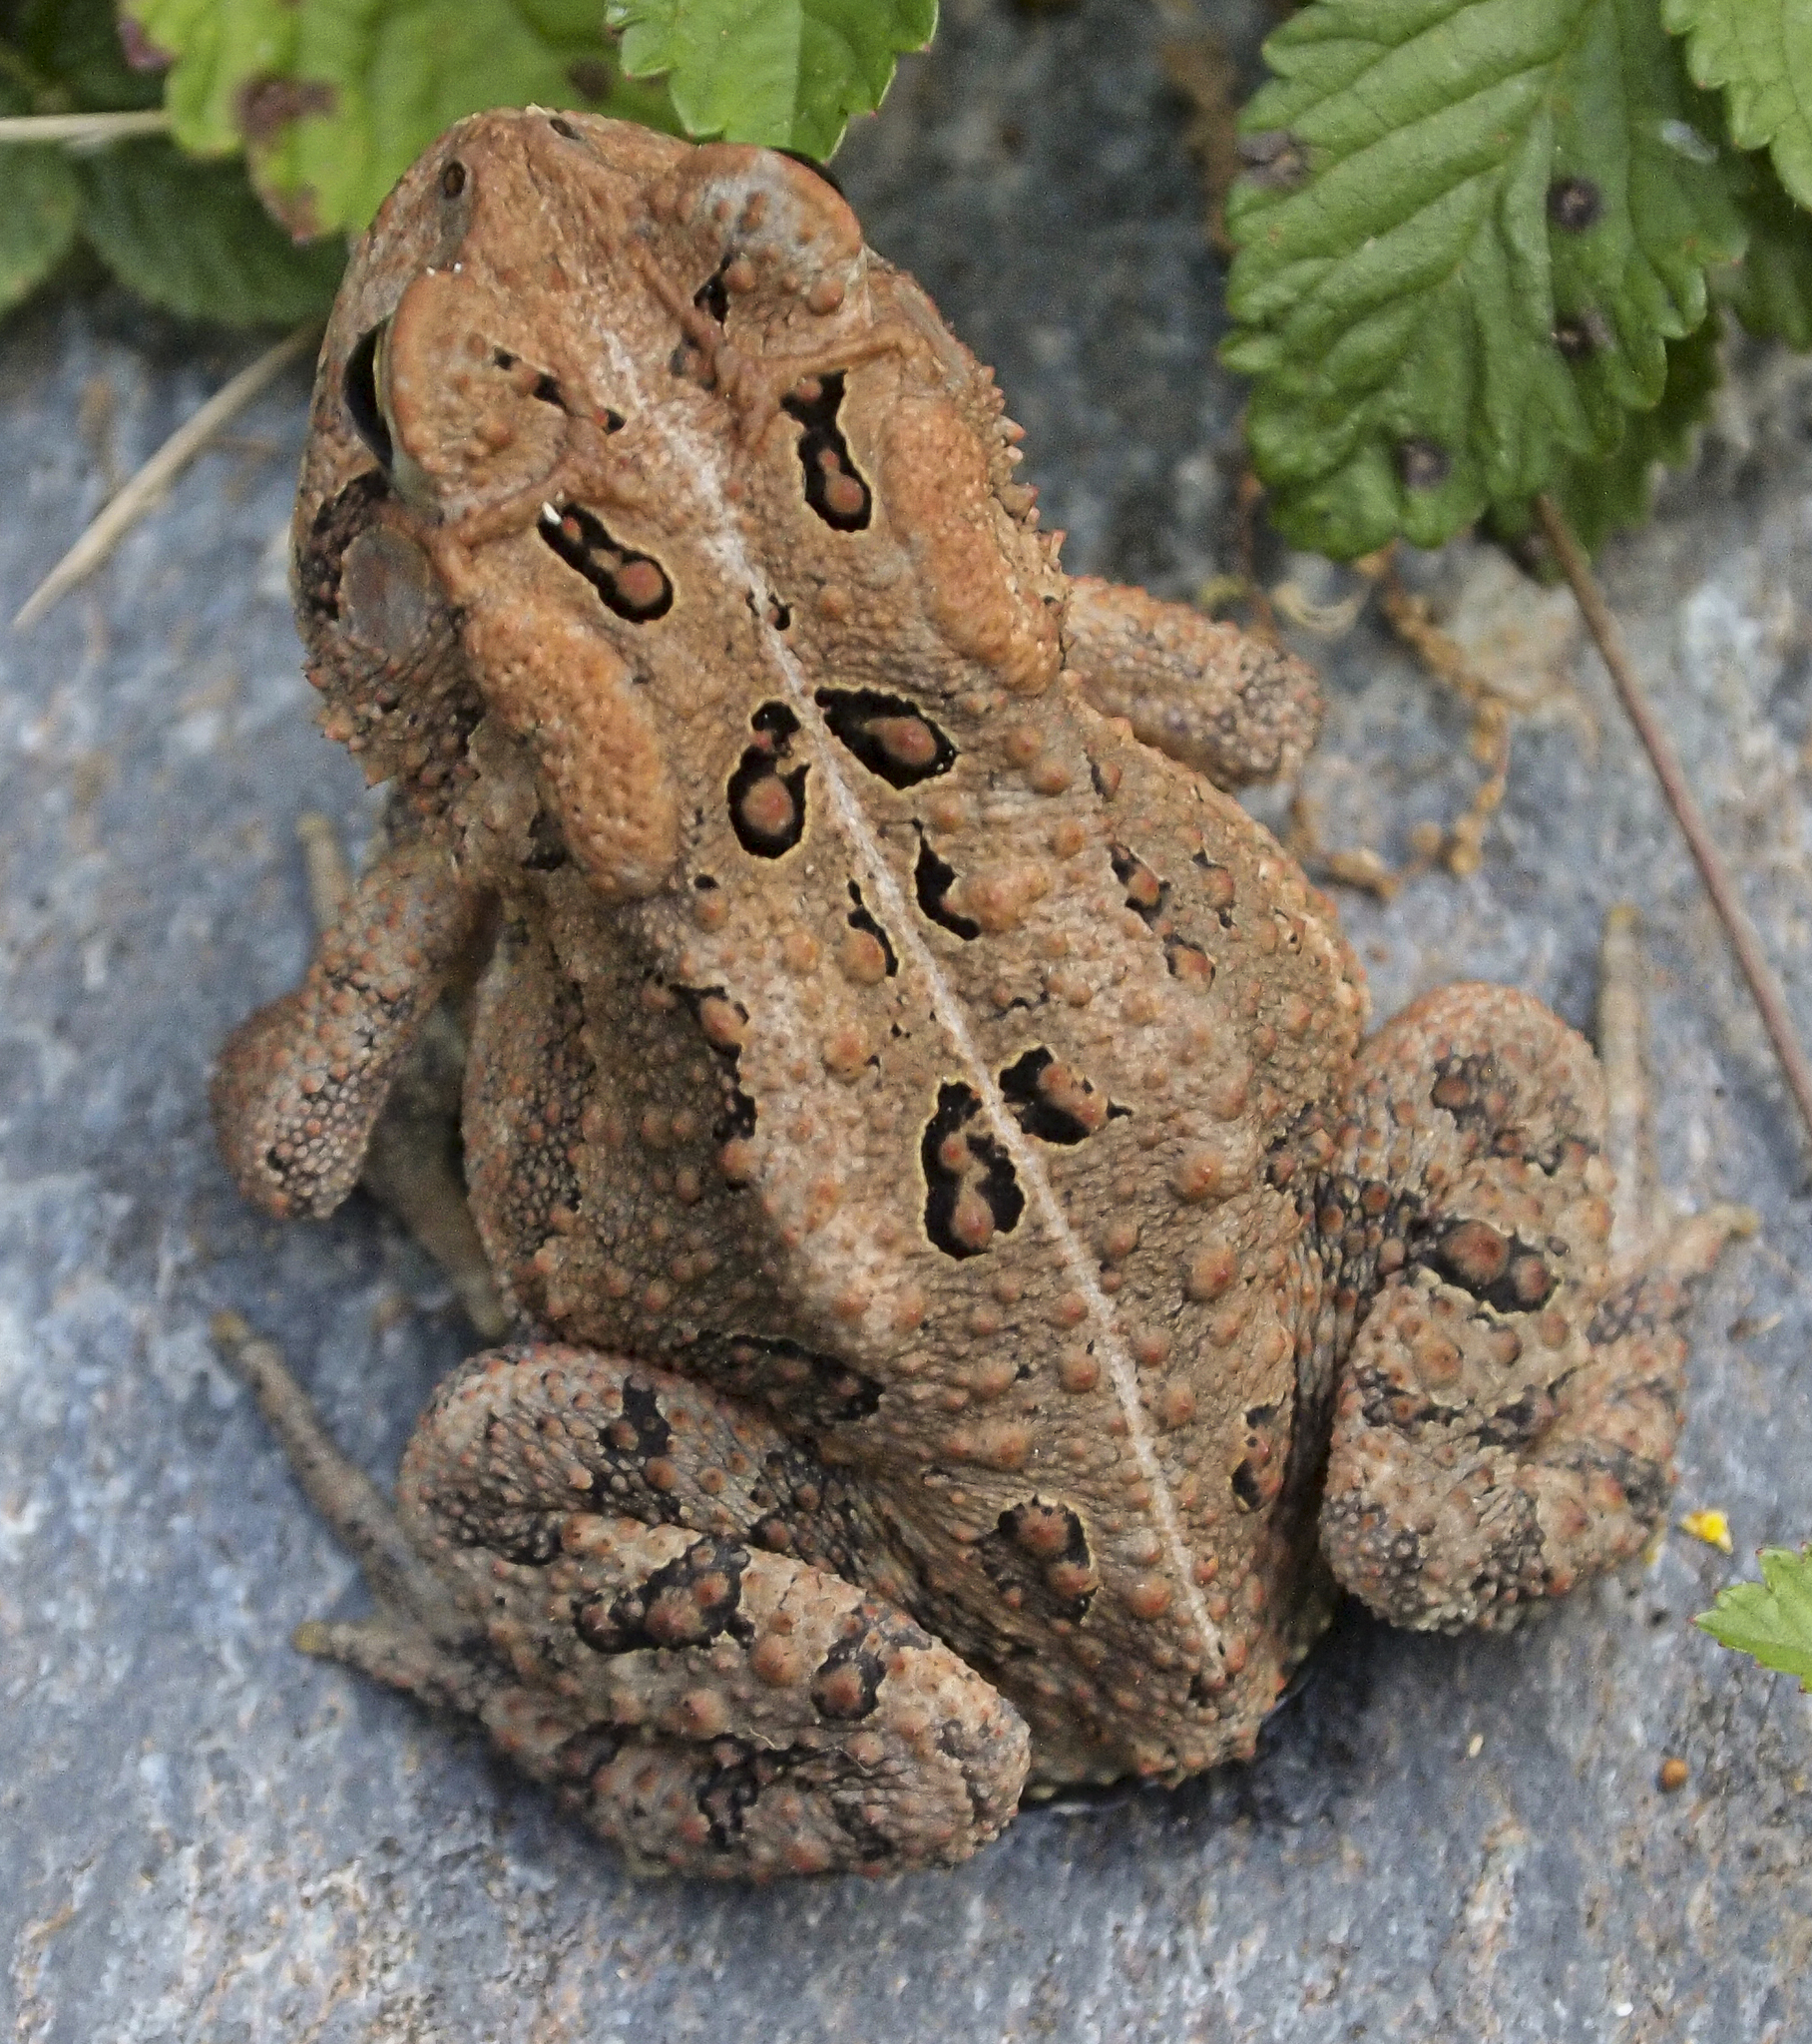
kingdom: Animalia
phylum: Chordata
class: Amphibia
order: Anura
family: Bufonidae
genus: Anaxyrus
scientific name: Anaxyrus americanus
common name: American toad
